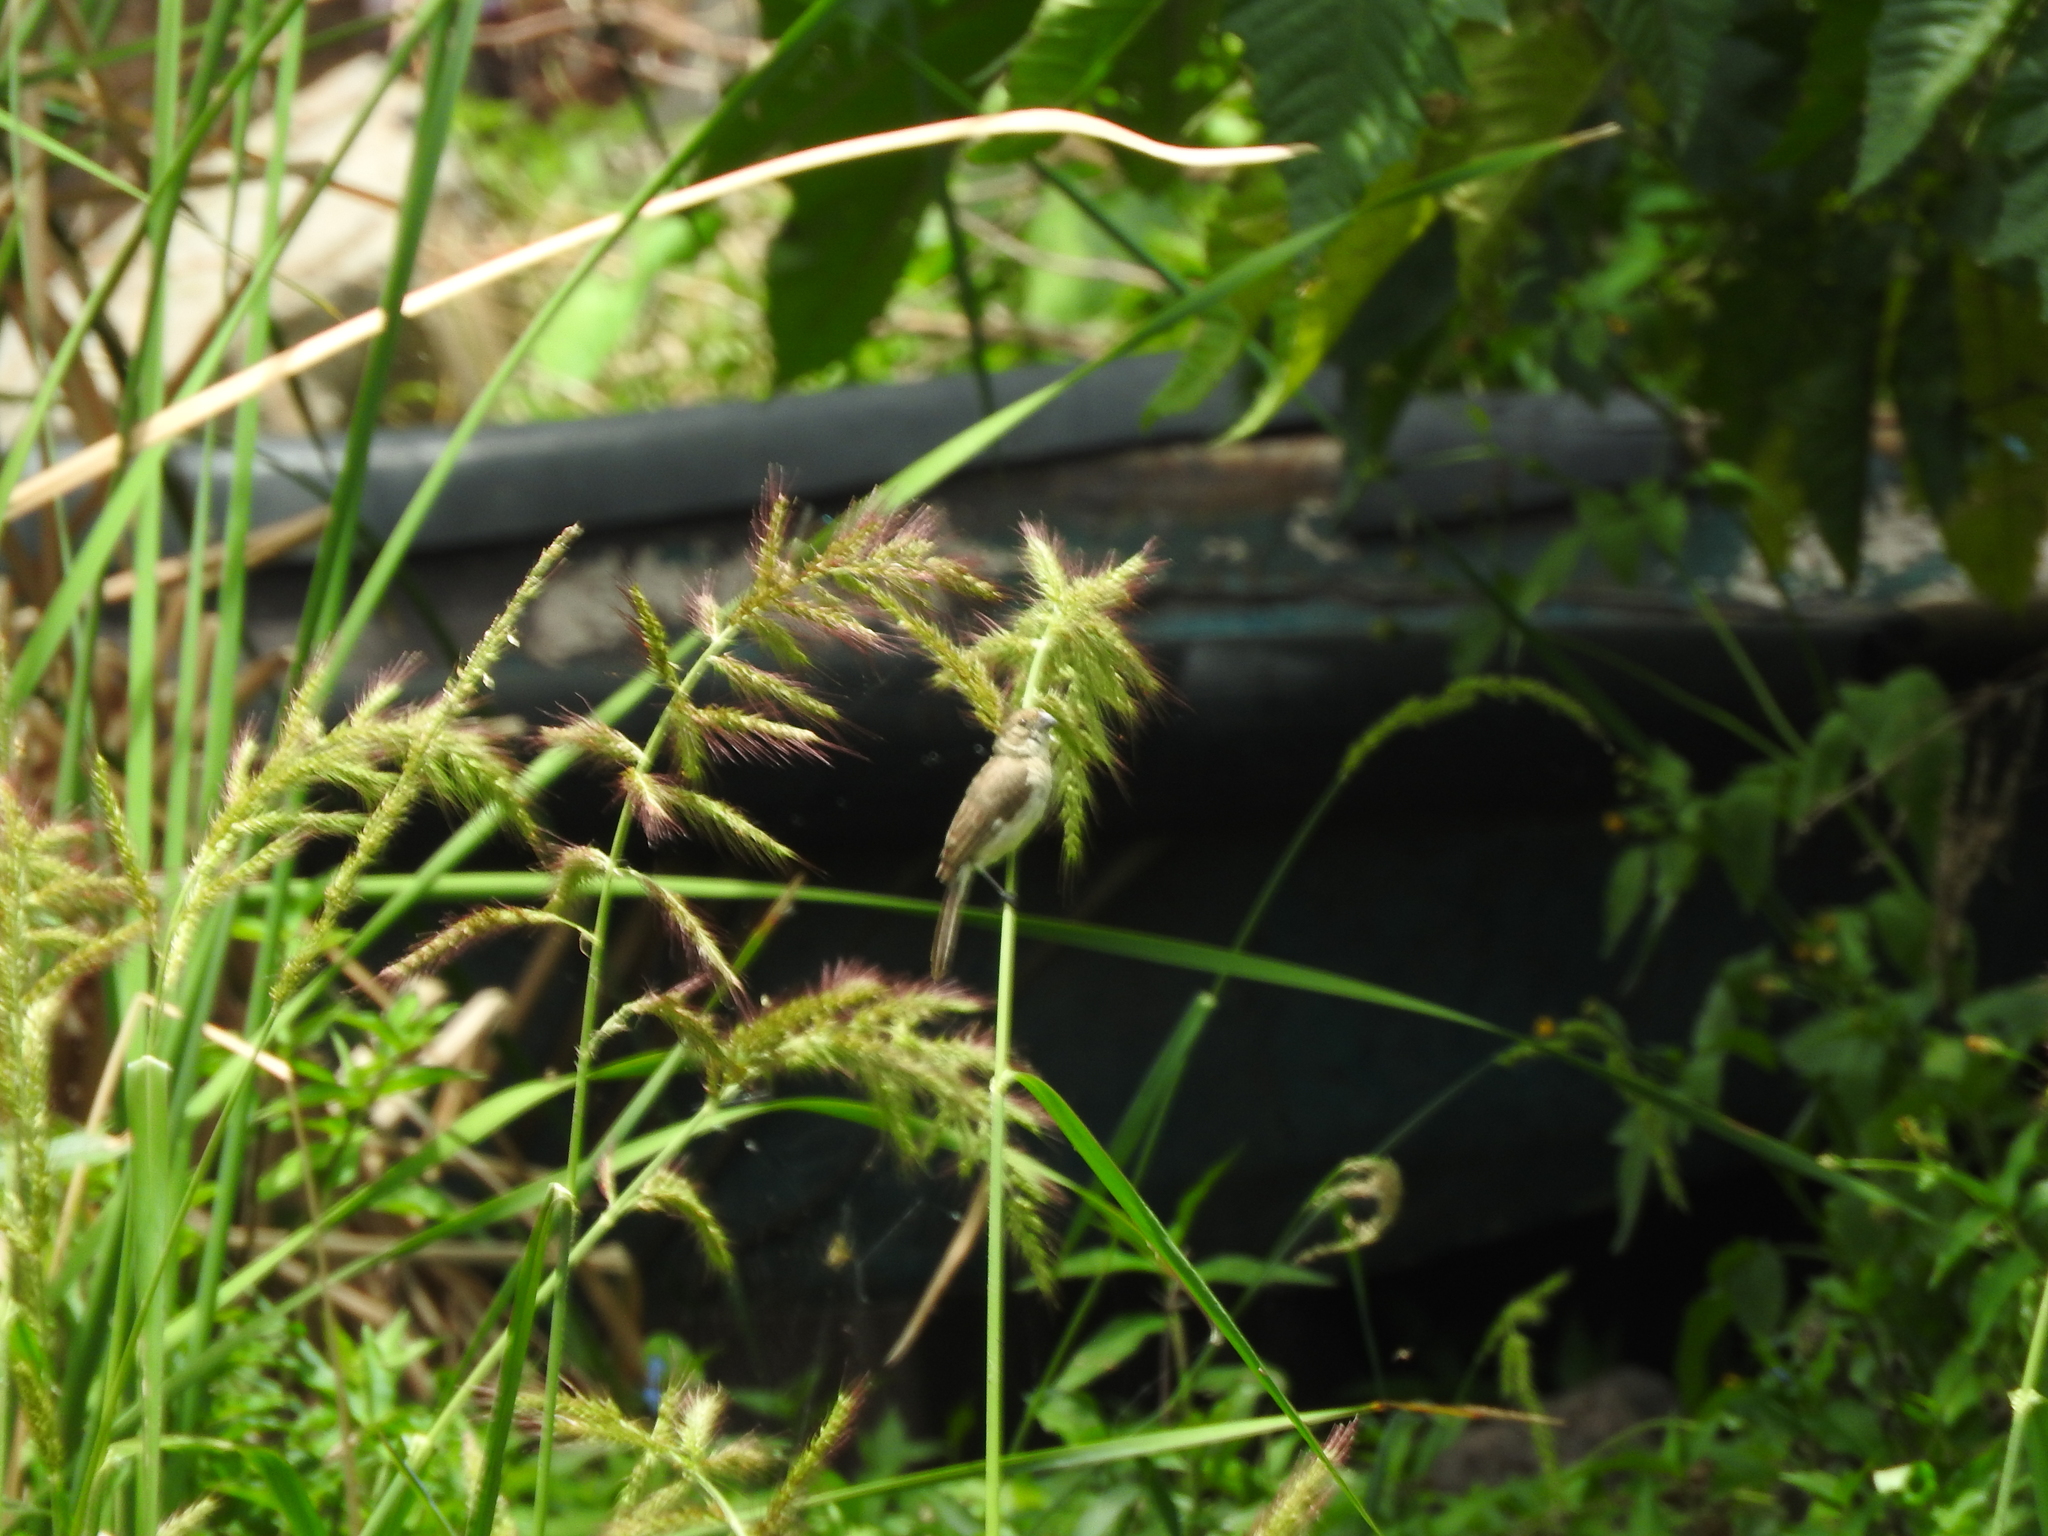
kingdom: Animalia
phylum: Chordata
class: Aves
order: Passeriformes
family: Thraupidae
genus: Sporophila
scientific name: Sporophila torqueola
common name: White-collared seedeater
